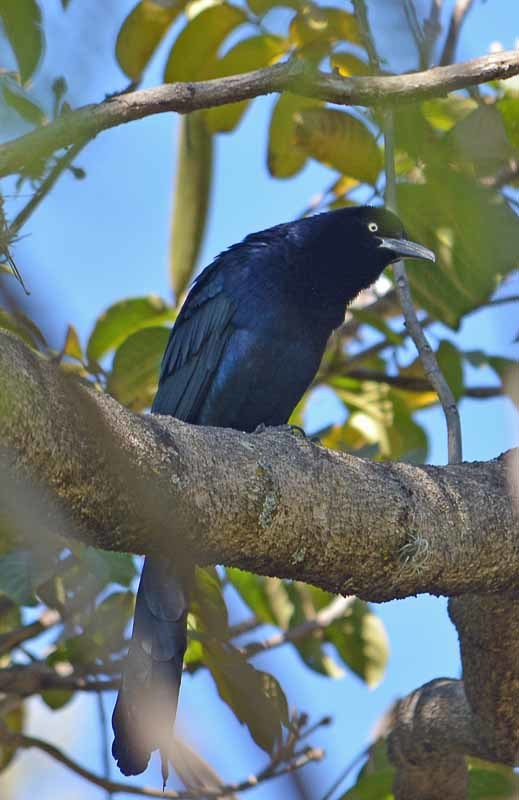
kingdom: Animalia
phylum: Chordata
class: Aves
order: Passeriformes
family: Icteridae
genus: Quiscalus
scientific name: Quiscalus mexicanus
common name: Great-tailed grackle
